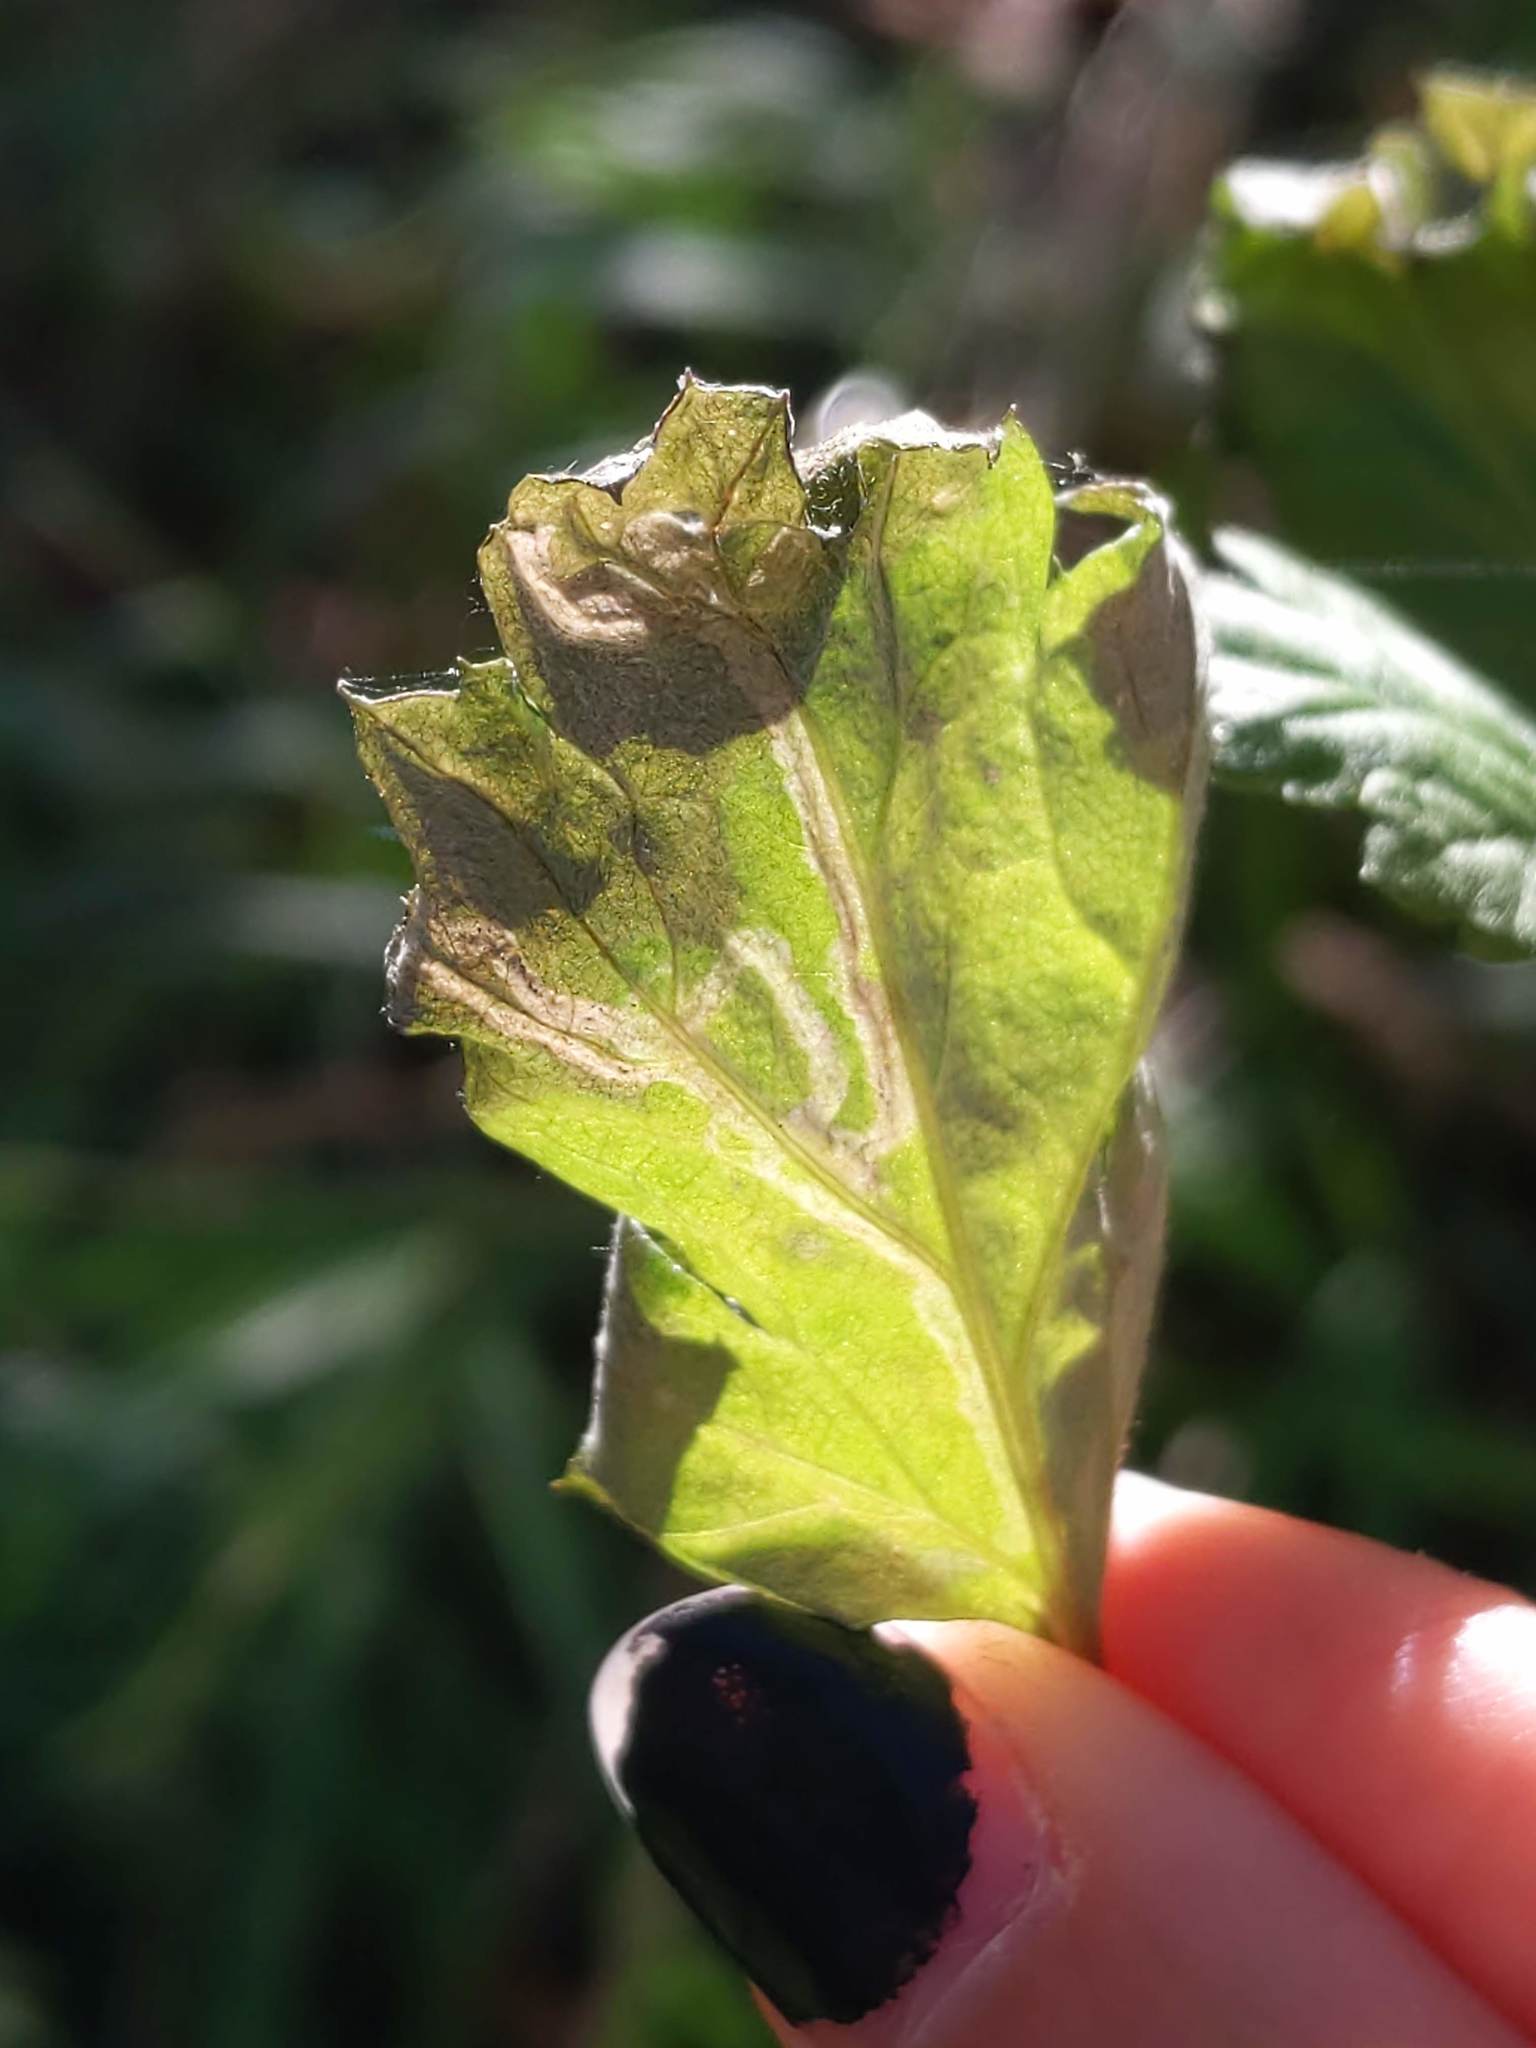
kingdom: Animalia
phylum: Arthropoda
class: Insecta
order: Diptera
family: Agromyzidae
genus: Liriomyza
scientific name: Liriomyza ptarmicae
